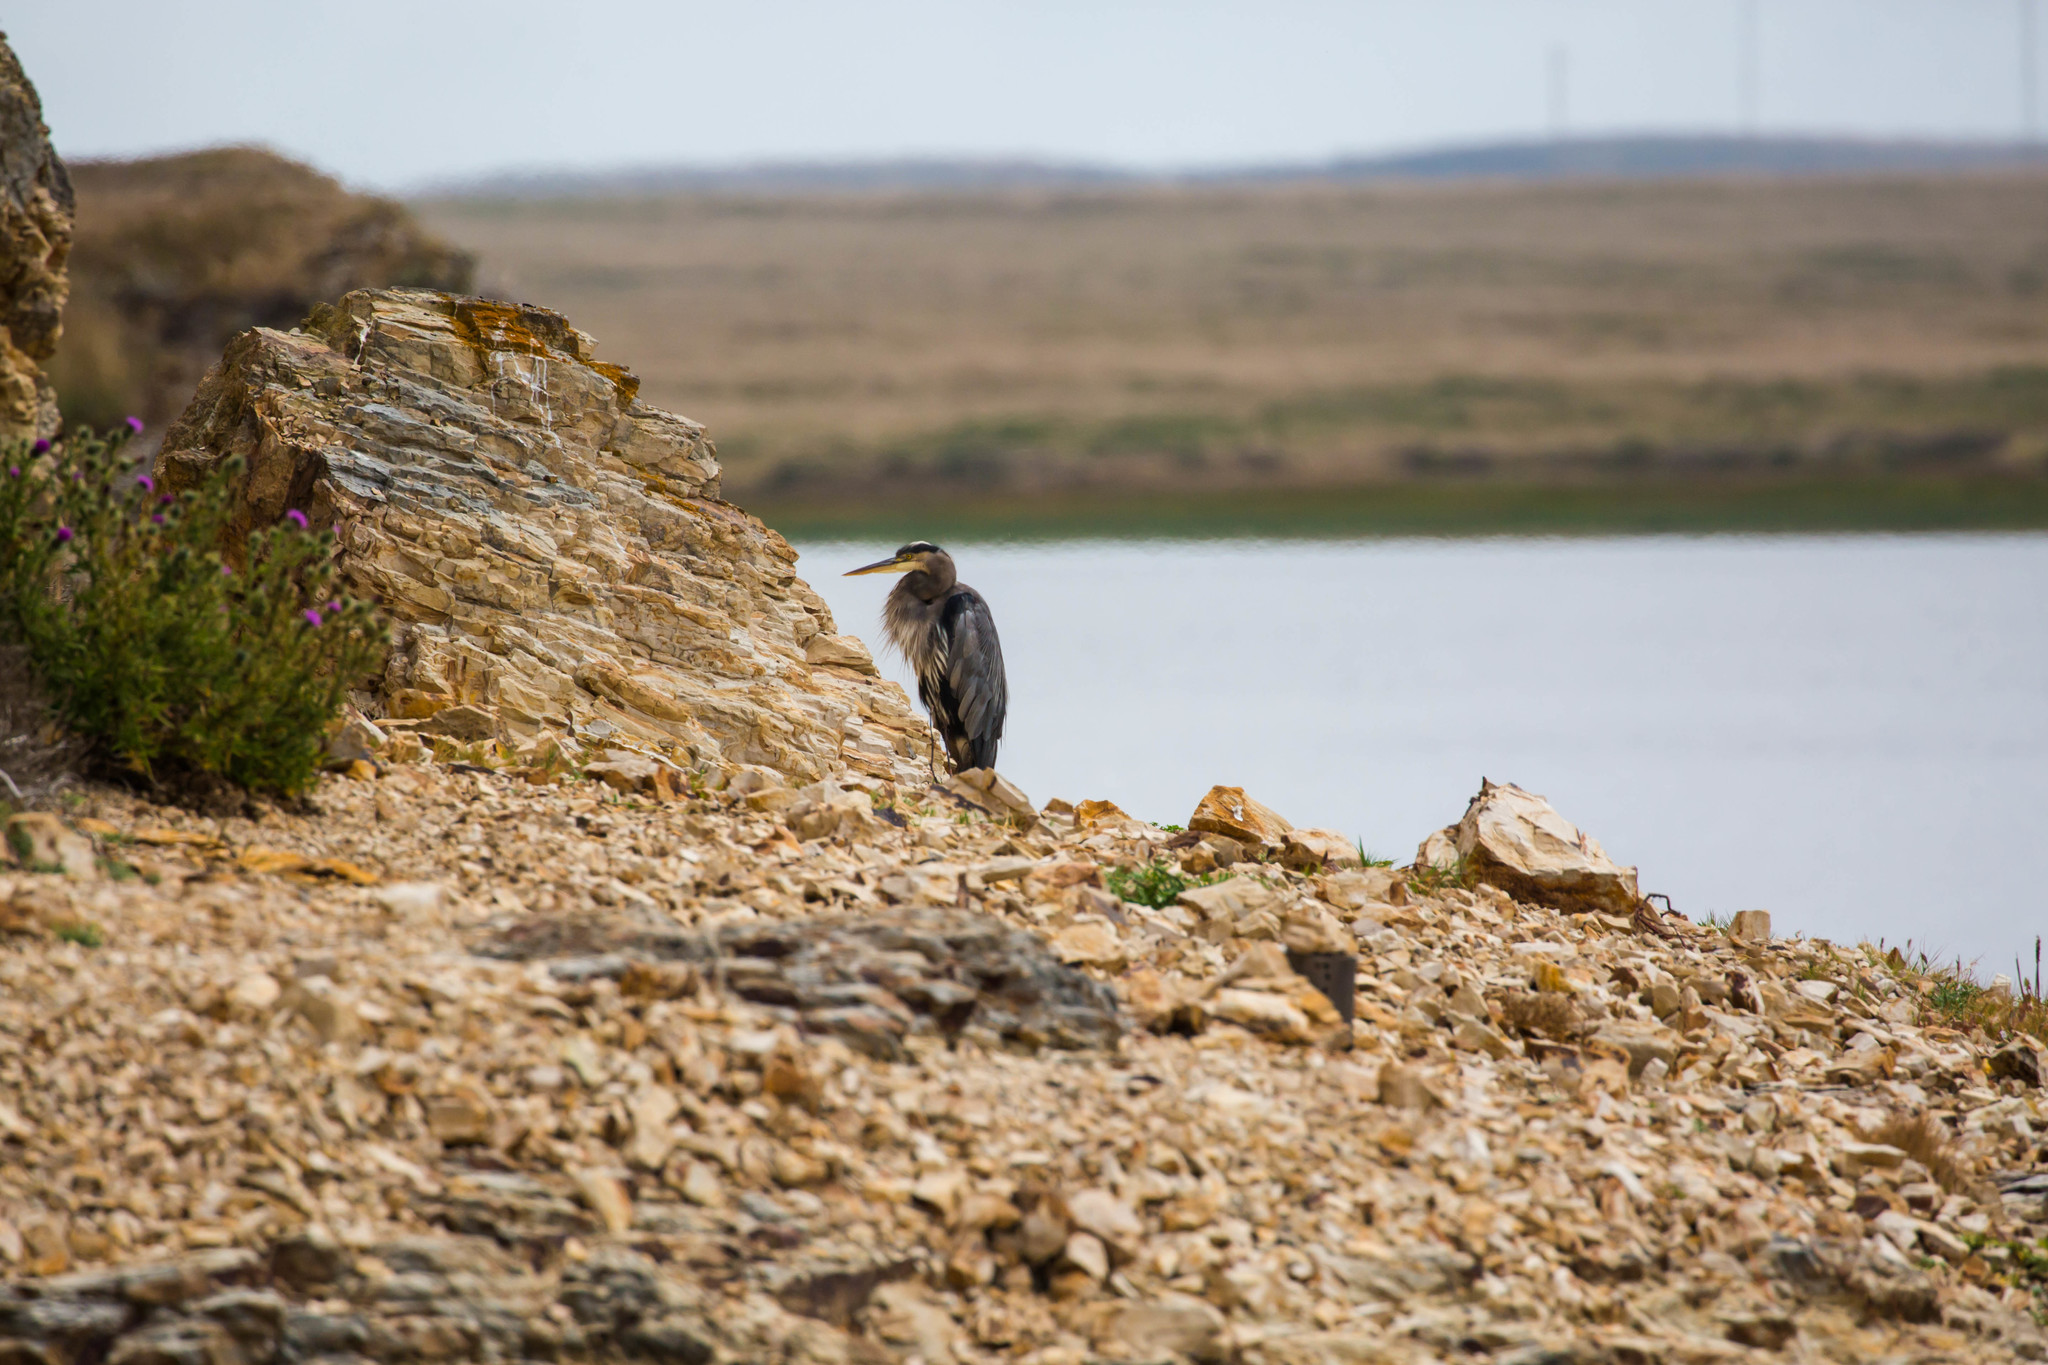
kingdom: Animalia
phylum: Chordata
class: Aves
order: Pelecaniformes
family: Ardeidae
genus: Ardea
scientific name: Ardea herodias
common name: Great blue heron
